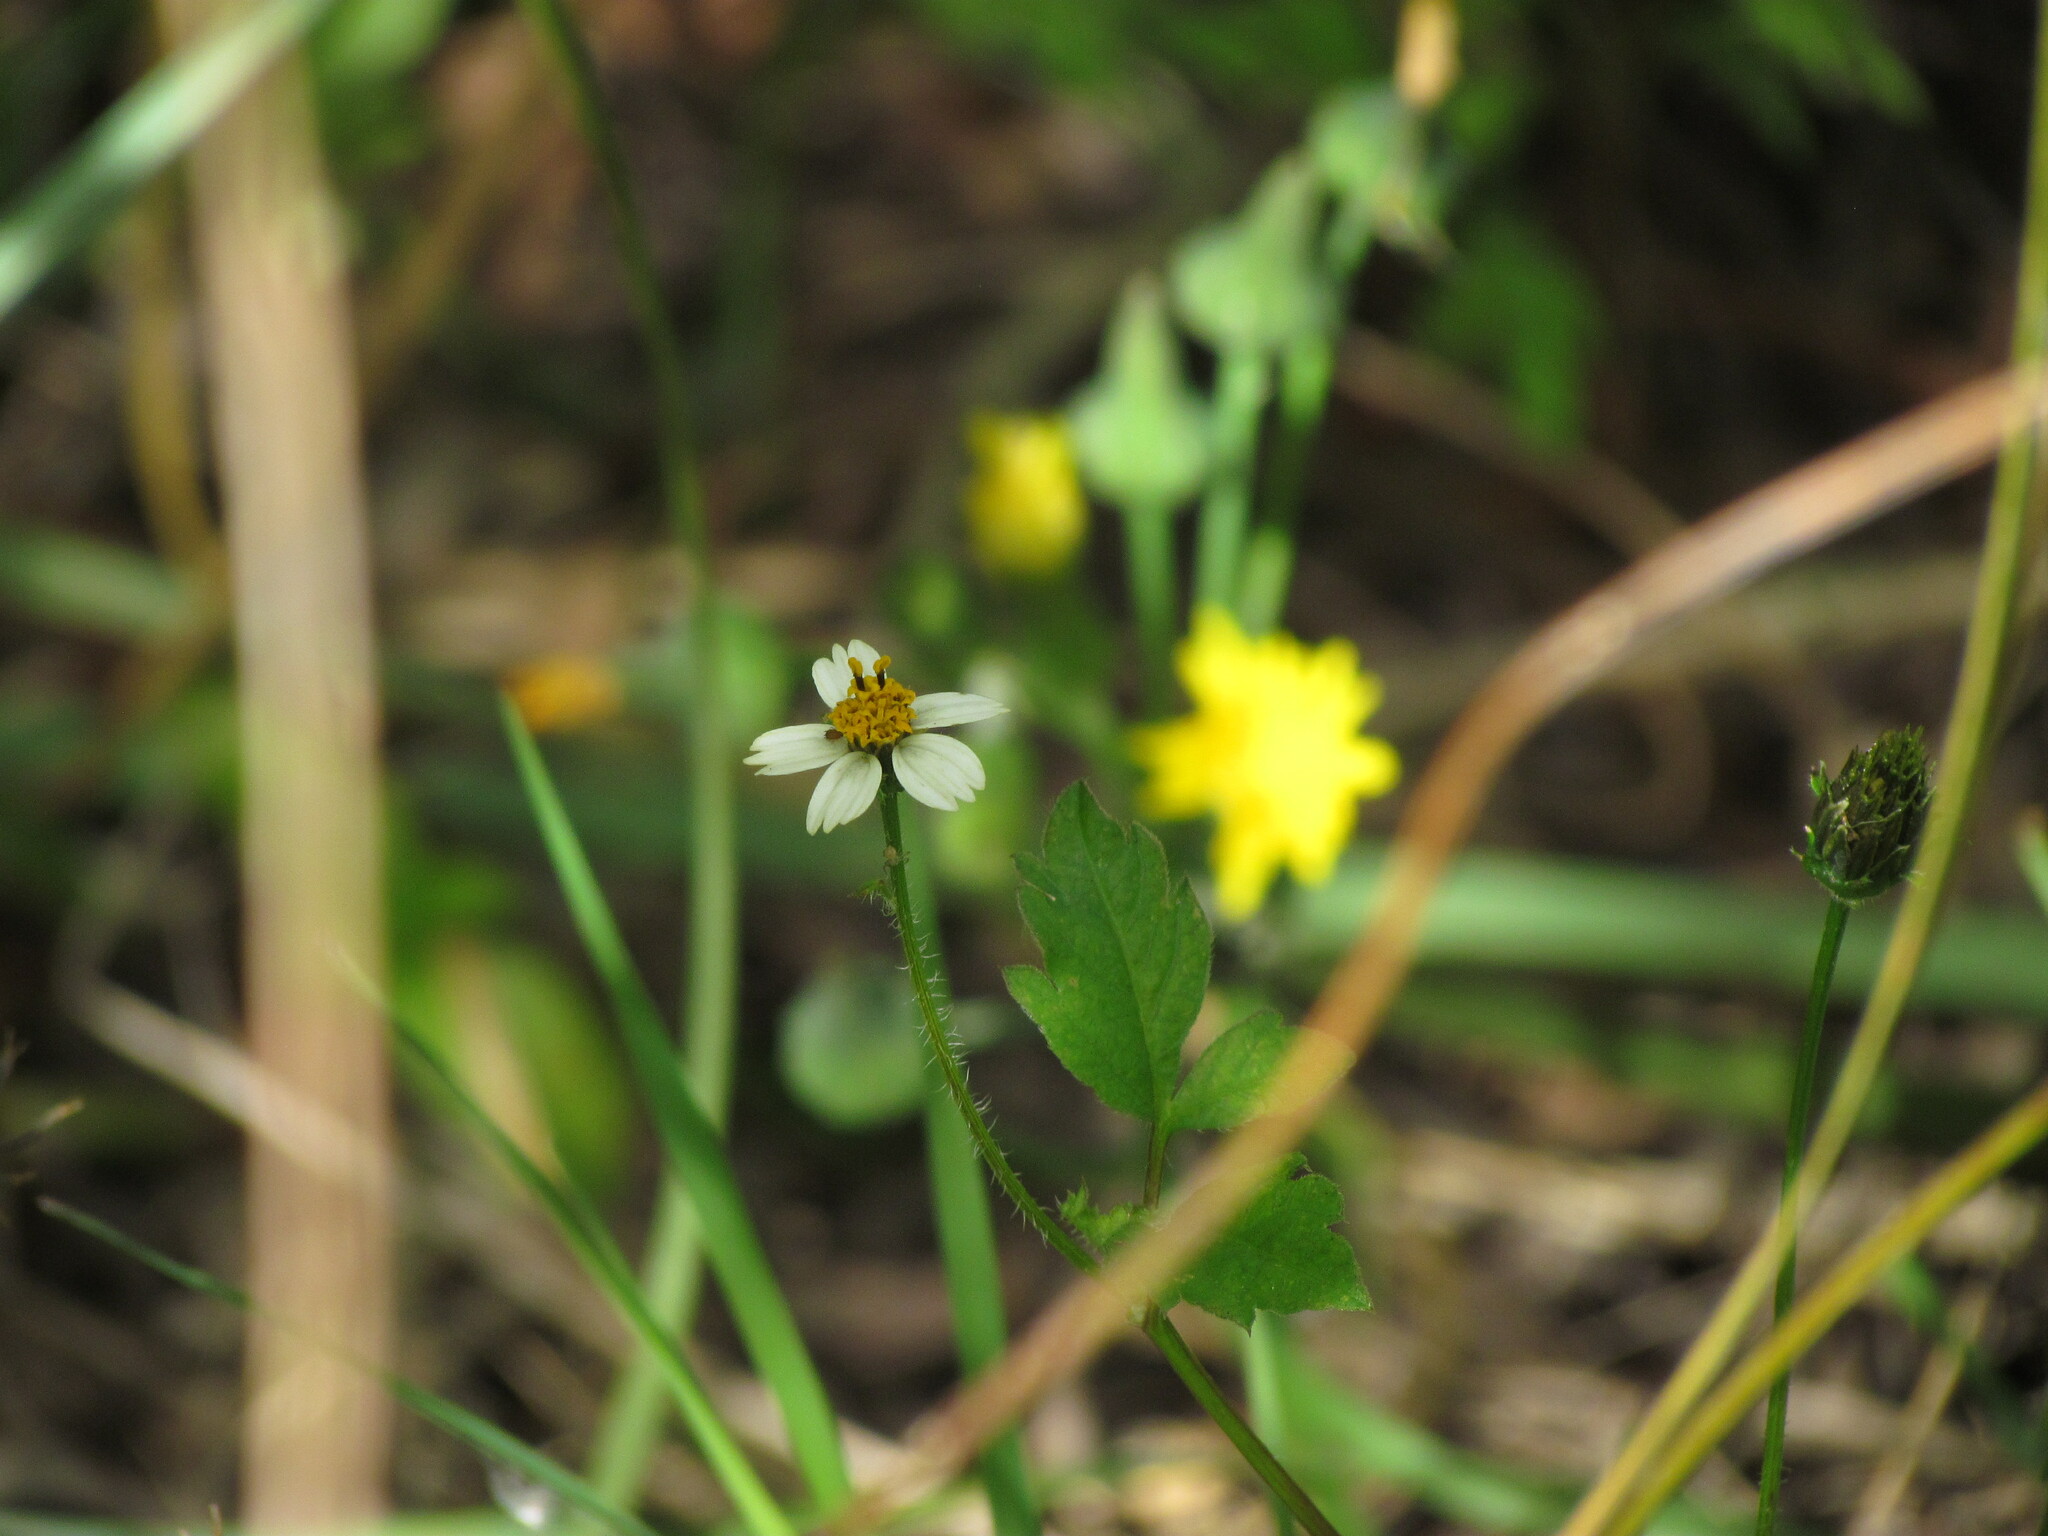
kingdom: Plantae
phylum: Tracheophyta
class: Magnoliopsida
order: Asterales
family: Asteraceae
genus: Bidens
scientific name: Bidens pilosa
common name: Black-jack
